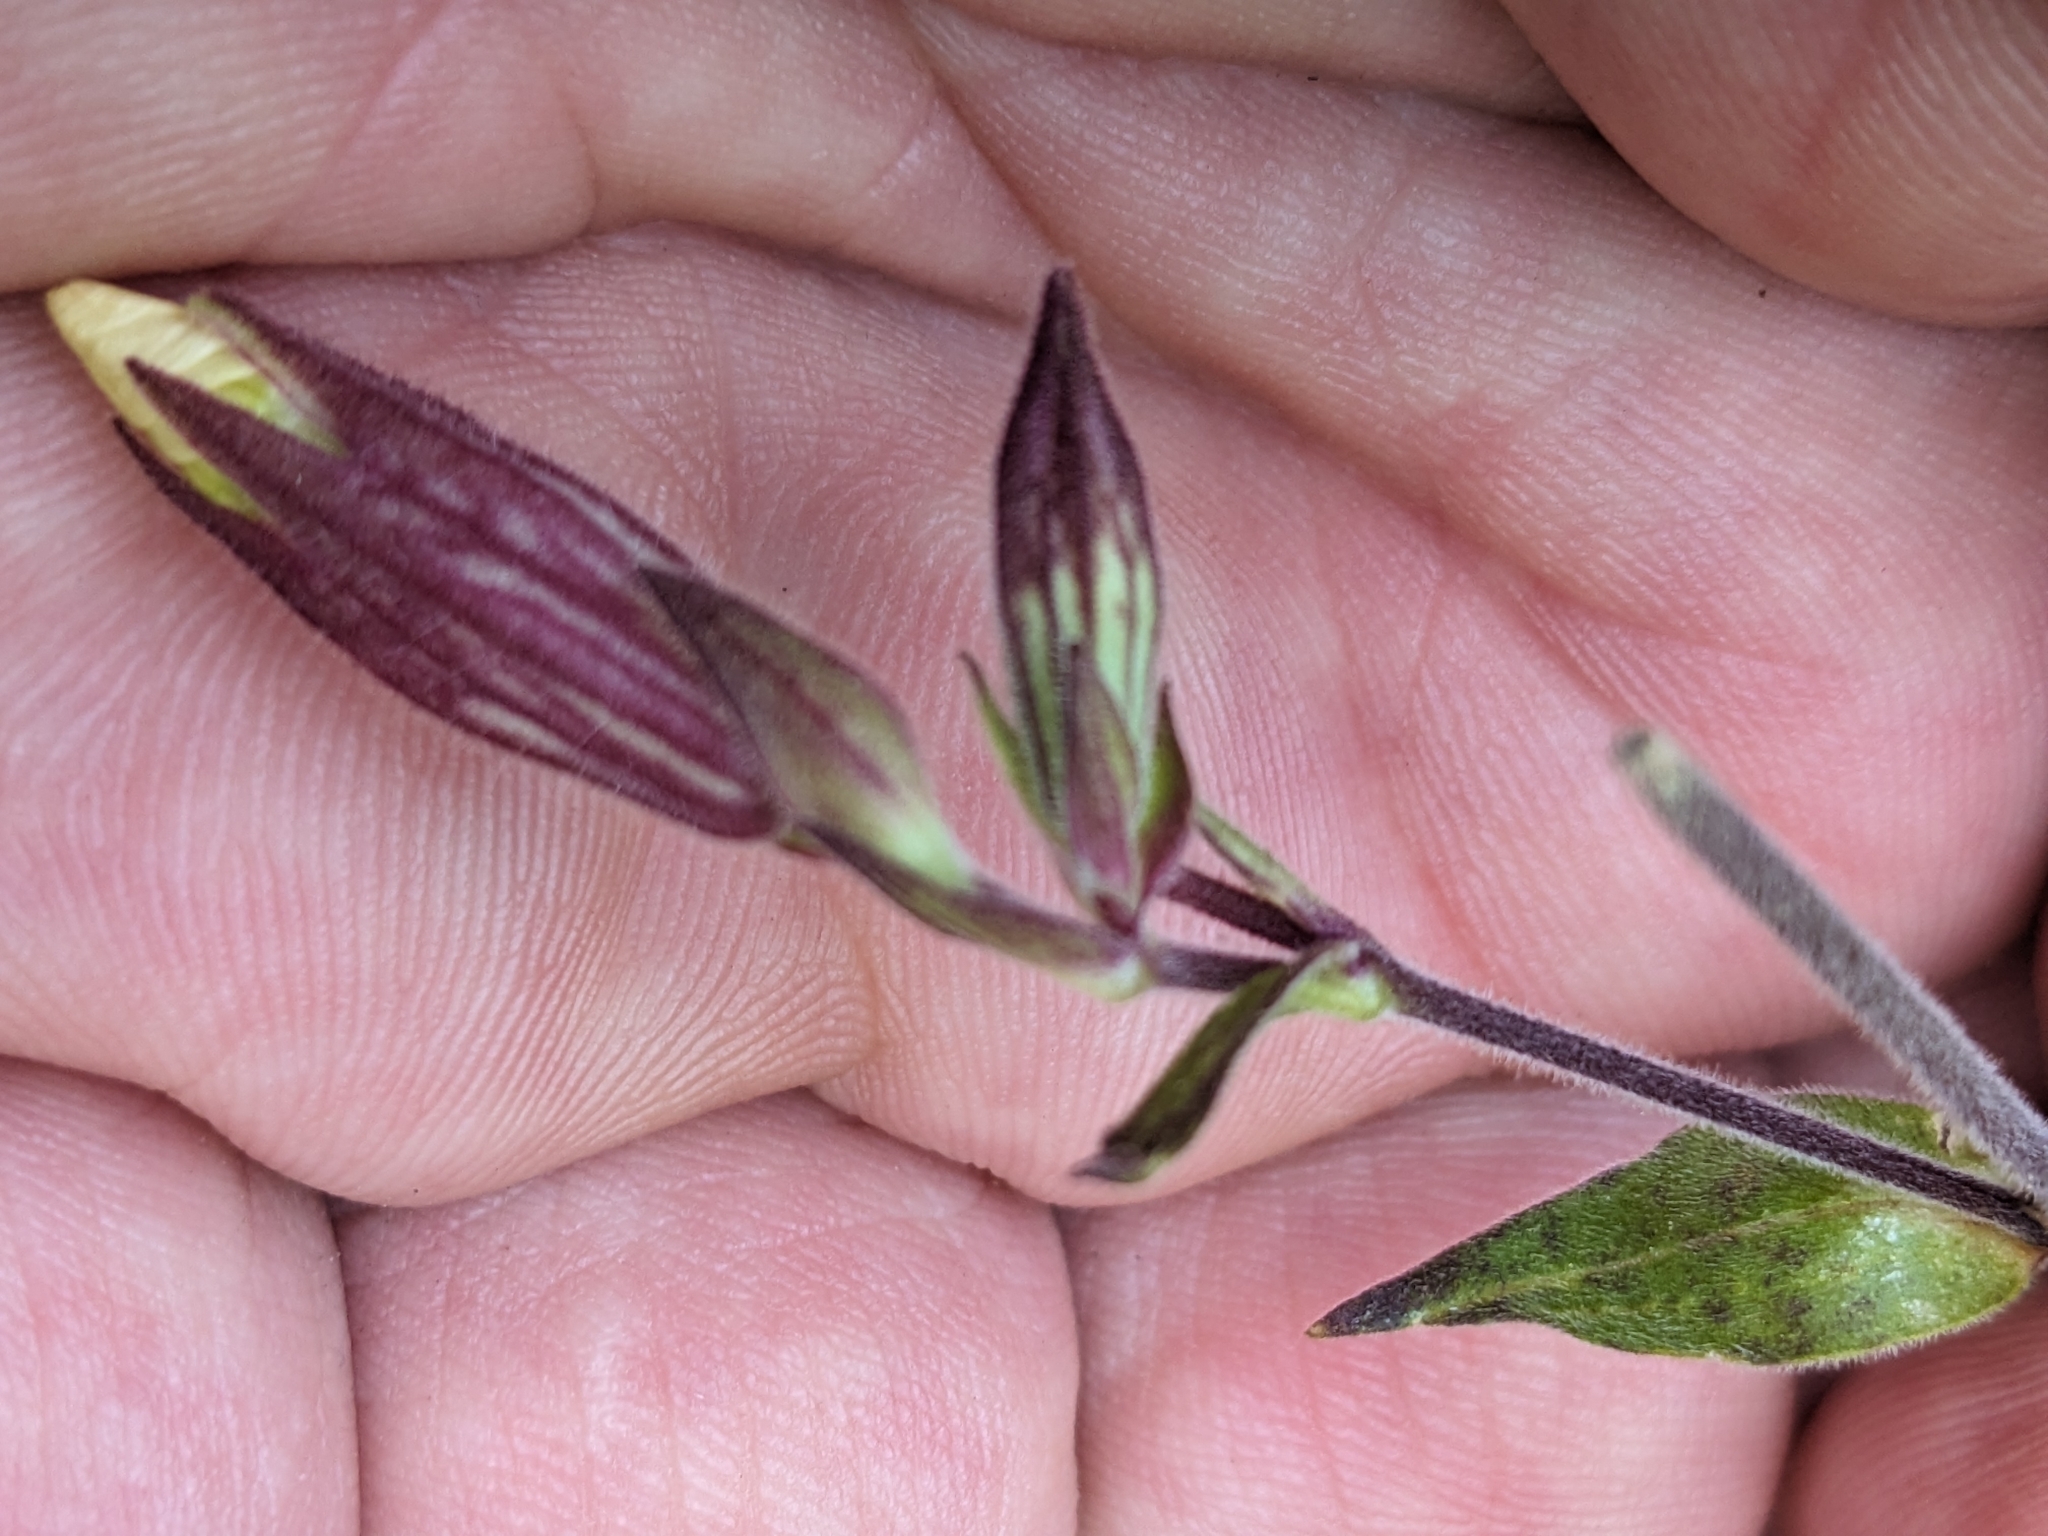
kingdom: Plantae
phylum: Tracheophyta
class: Magnoliopsida
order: Caryophyllales
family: Caryophyllaceae
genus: Silene
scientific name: Silene latifolia
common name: White campion
